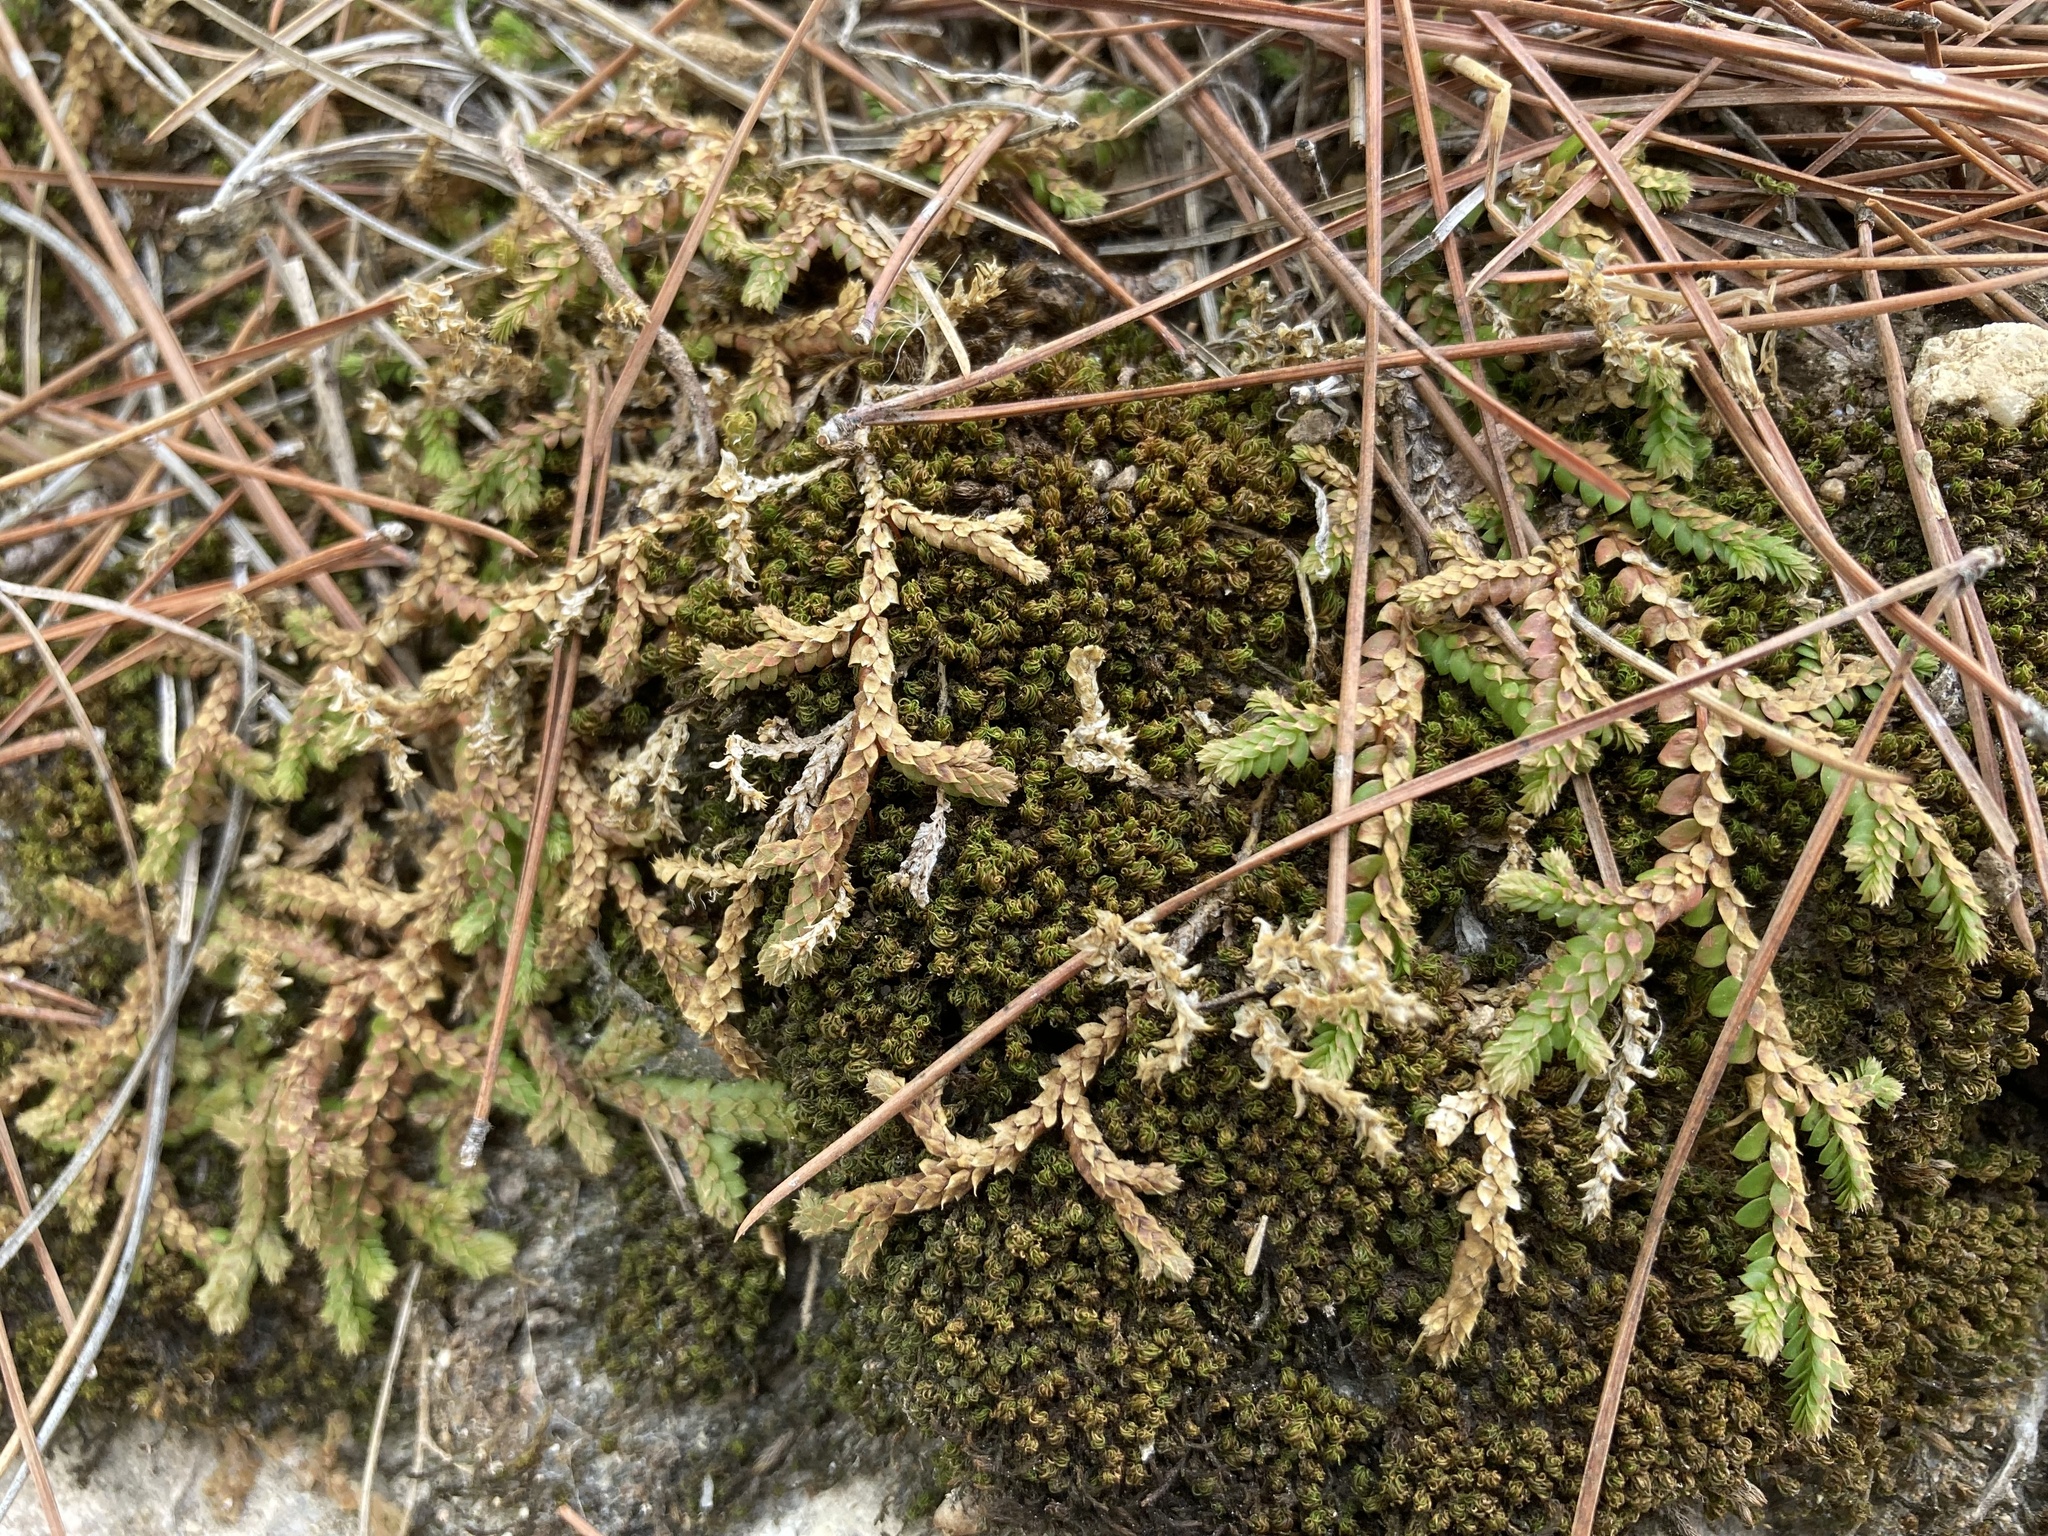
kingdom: Plantae
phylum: Tracheophyta
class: Lycopodiopsida
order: Selaginellales
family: Selaginellaceae
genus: Selaginella
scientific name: Selaginella denticulata
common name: Toothed-leaved clubmoss
